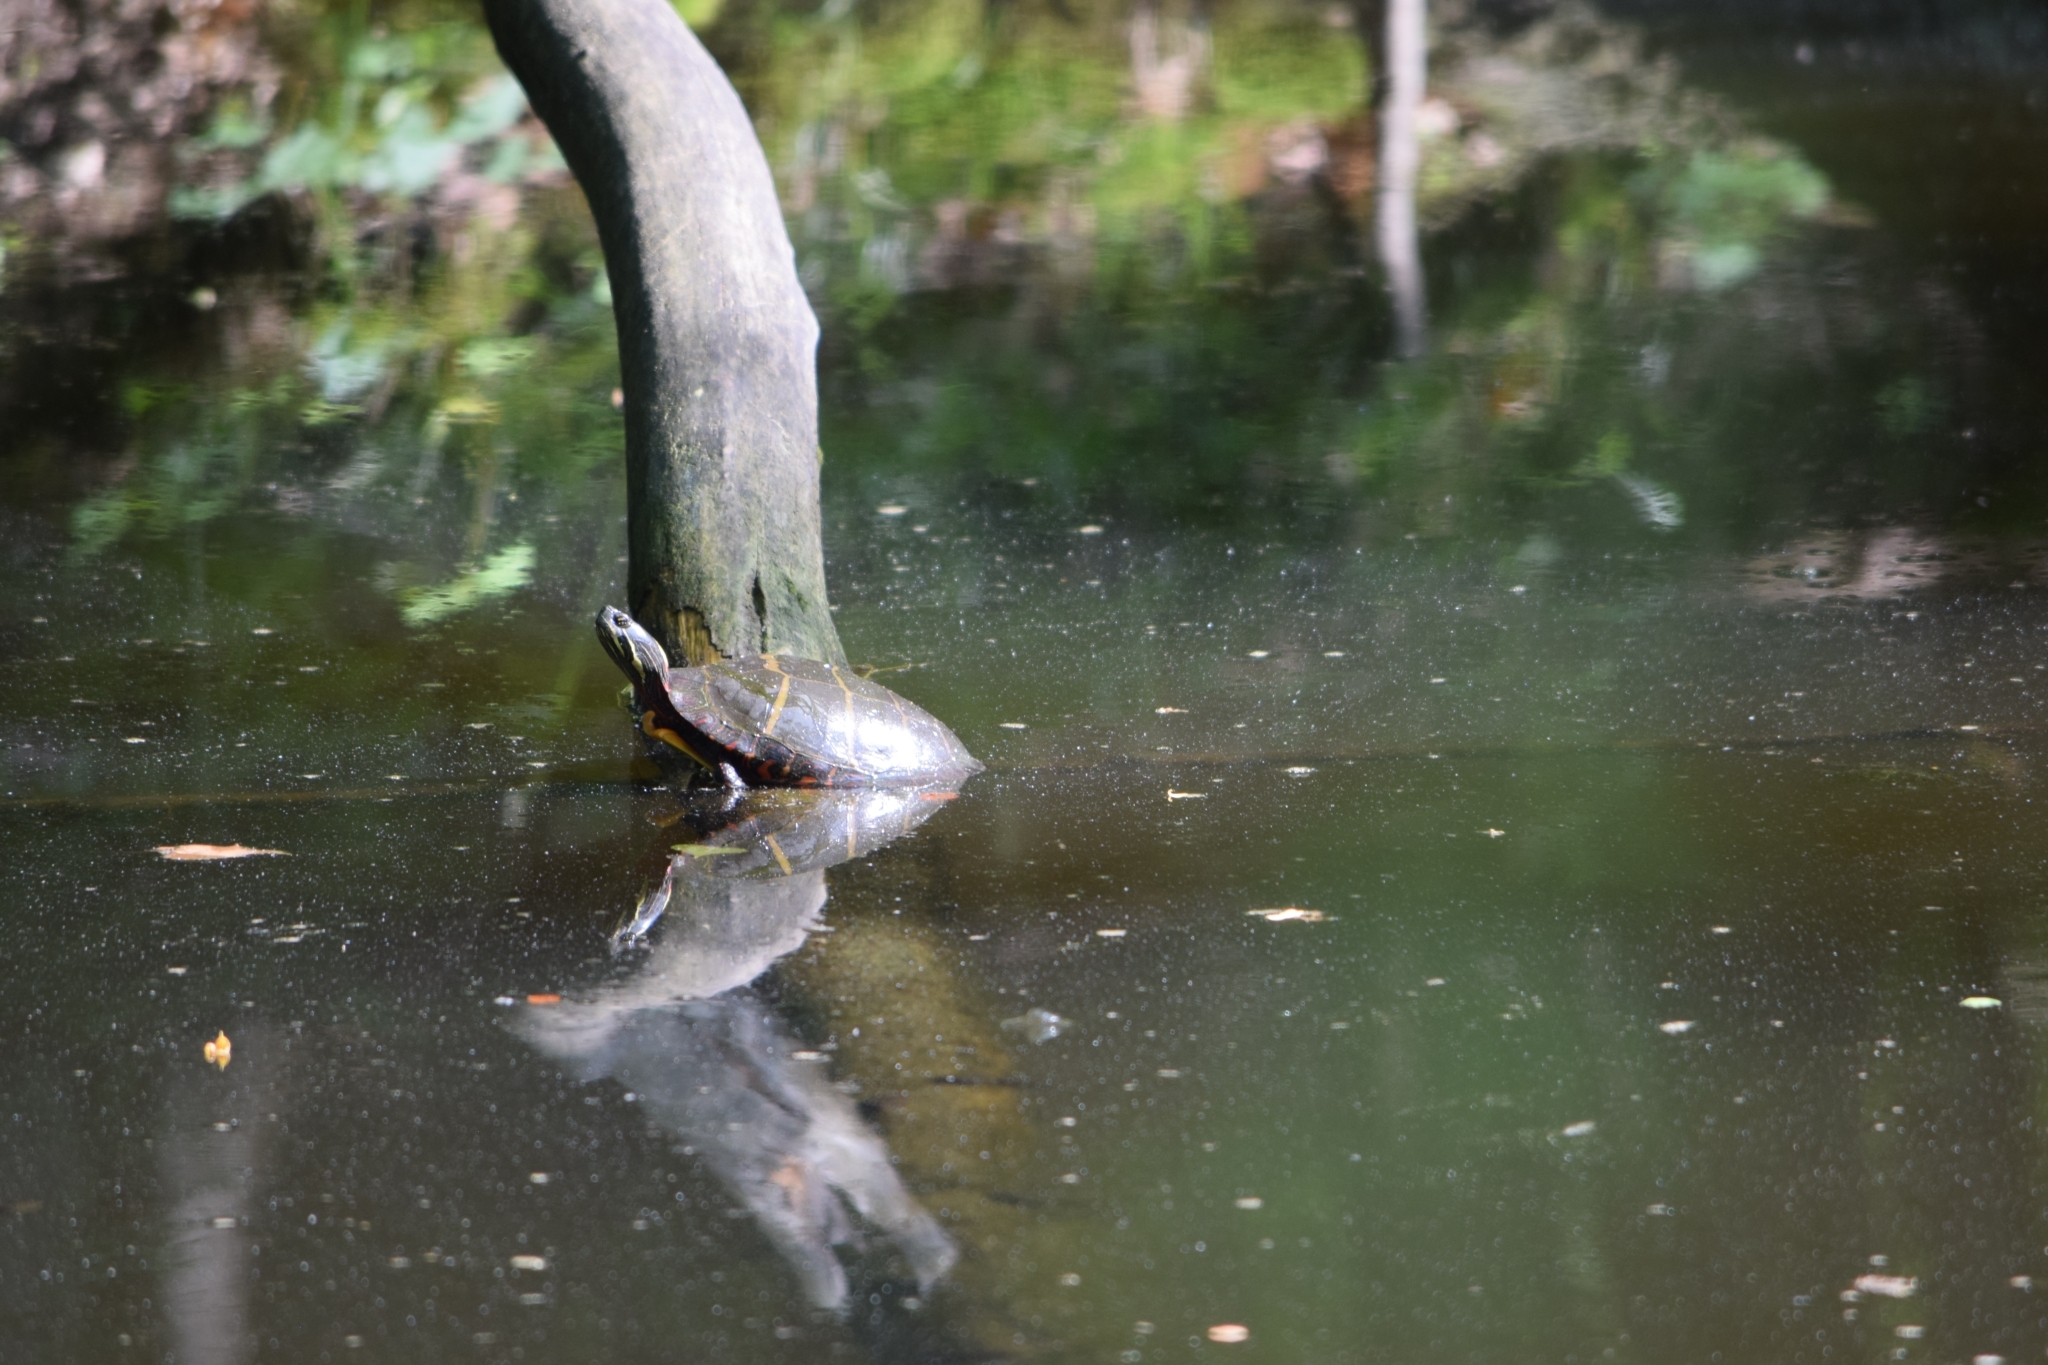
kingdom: Animalia
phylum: Chordata
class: Testudines
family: Emydidae
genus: Chrysemys
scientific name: Chrysemys picta
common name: Painted turtle
